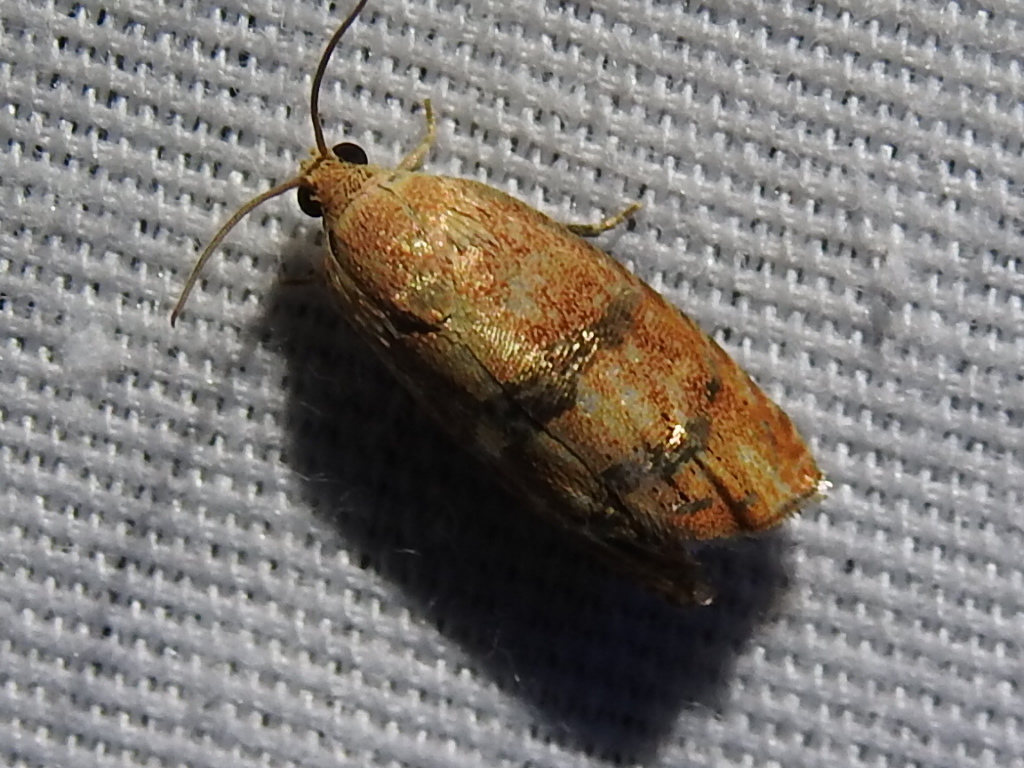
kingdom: Animalia
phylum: Arthropoda
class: Insecta
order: Lepidoptera
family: Tortricidae
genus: Cydia
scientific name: Cydia latiferreana
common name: Filbertworm moth
